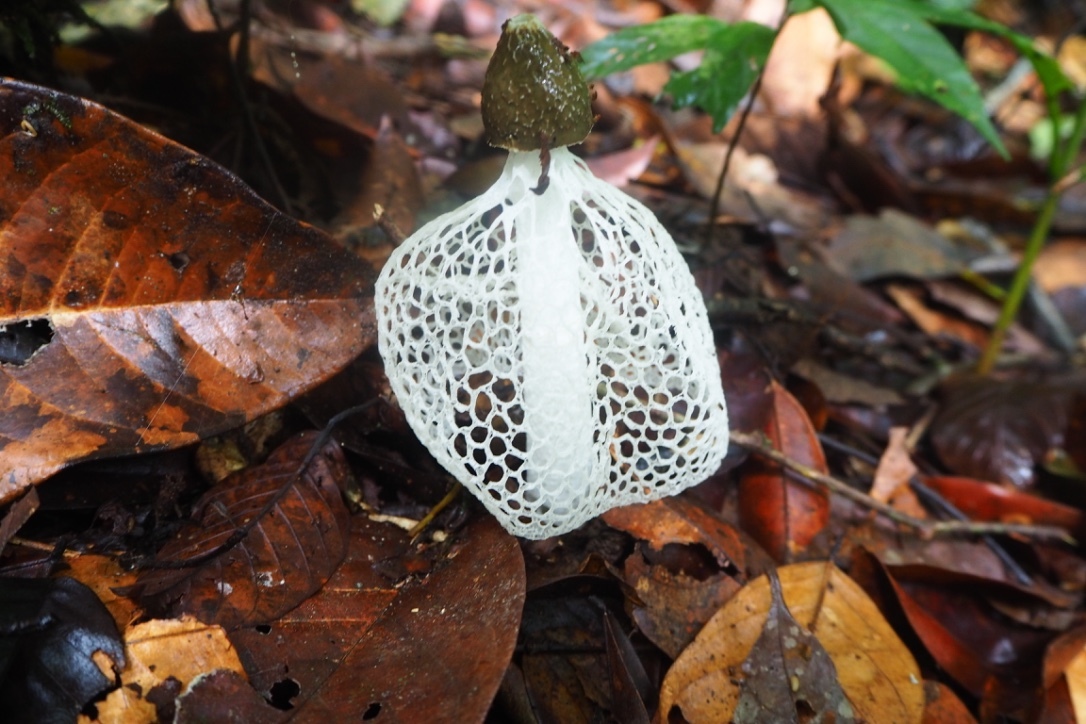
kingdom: Fungi
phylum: Basidiomycota
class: Agaricomycetes
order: Phallales
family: Phallaceae
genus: Phallus
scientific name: Phallus indusiatus
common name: Bridal veil stinkhorn
